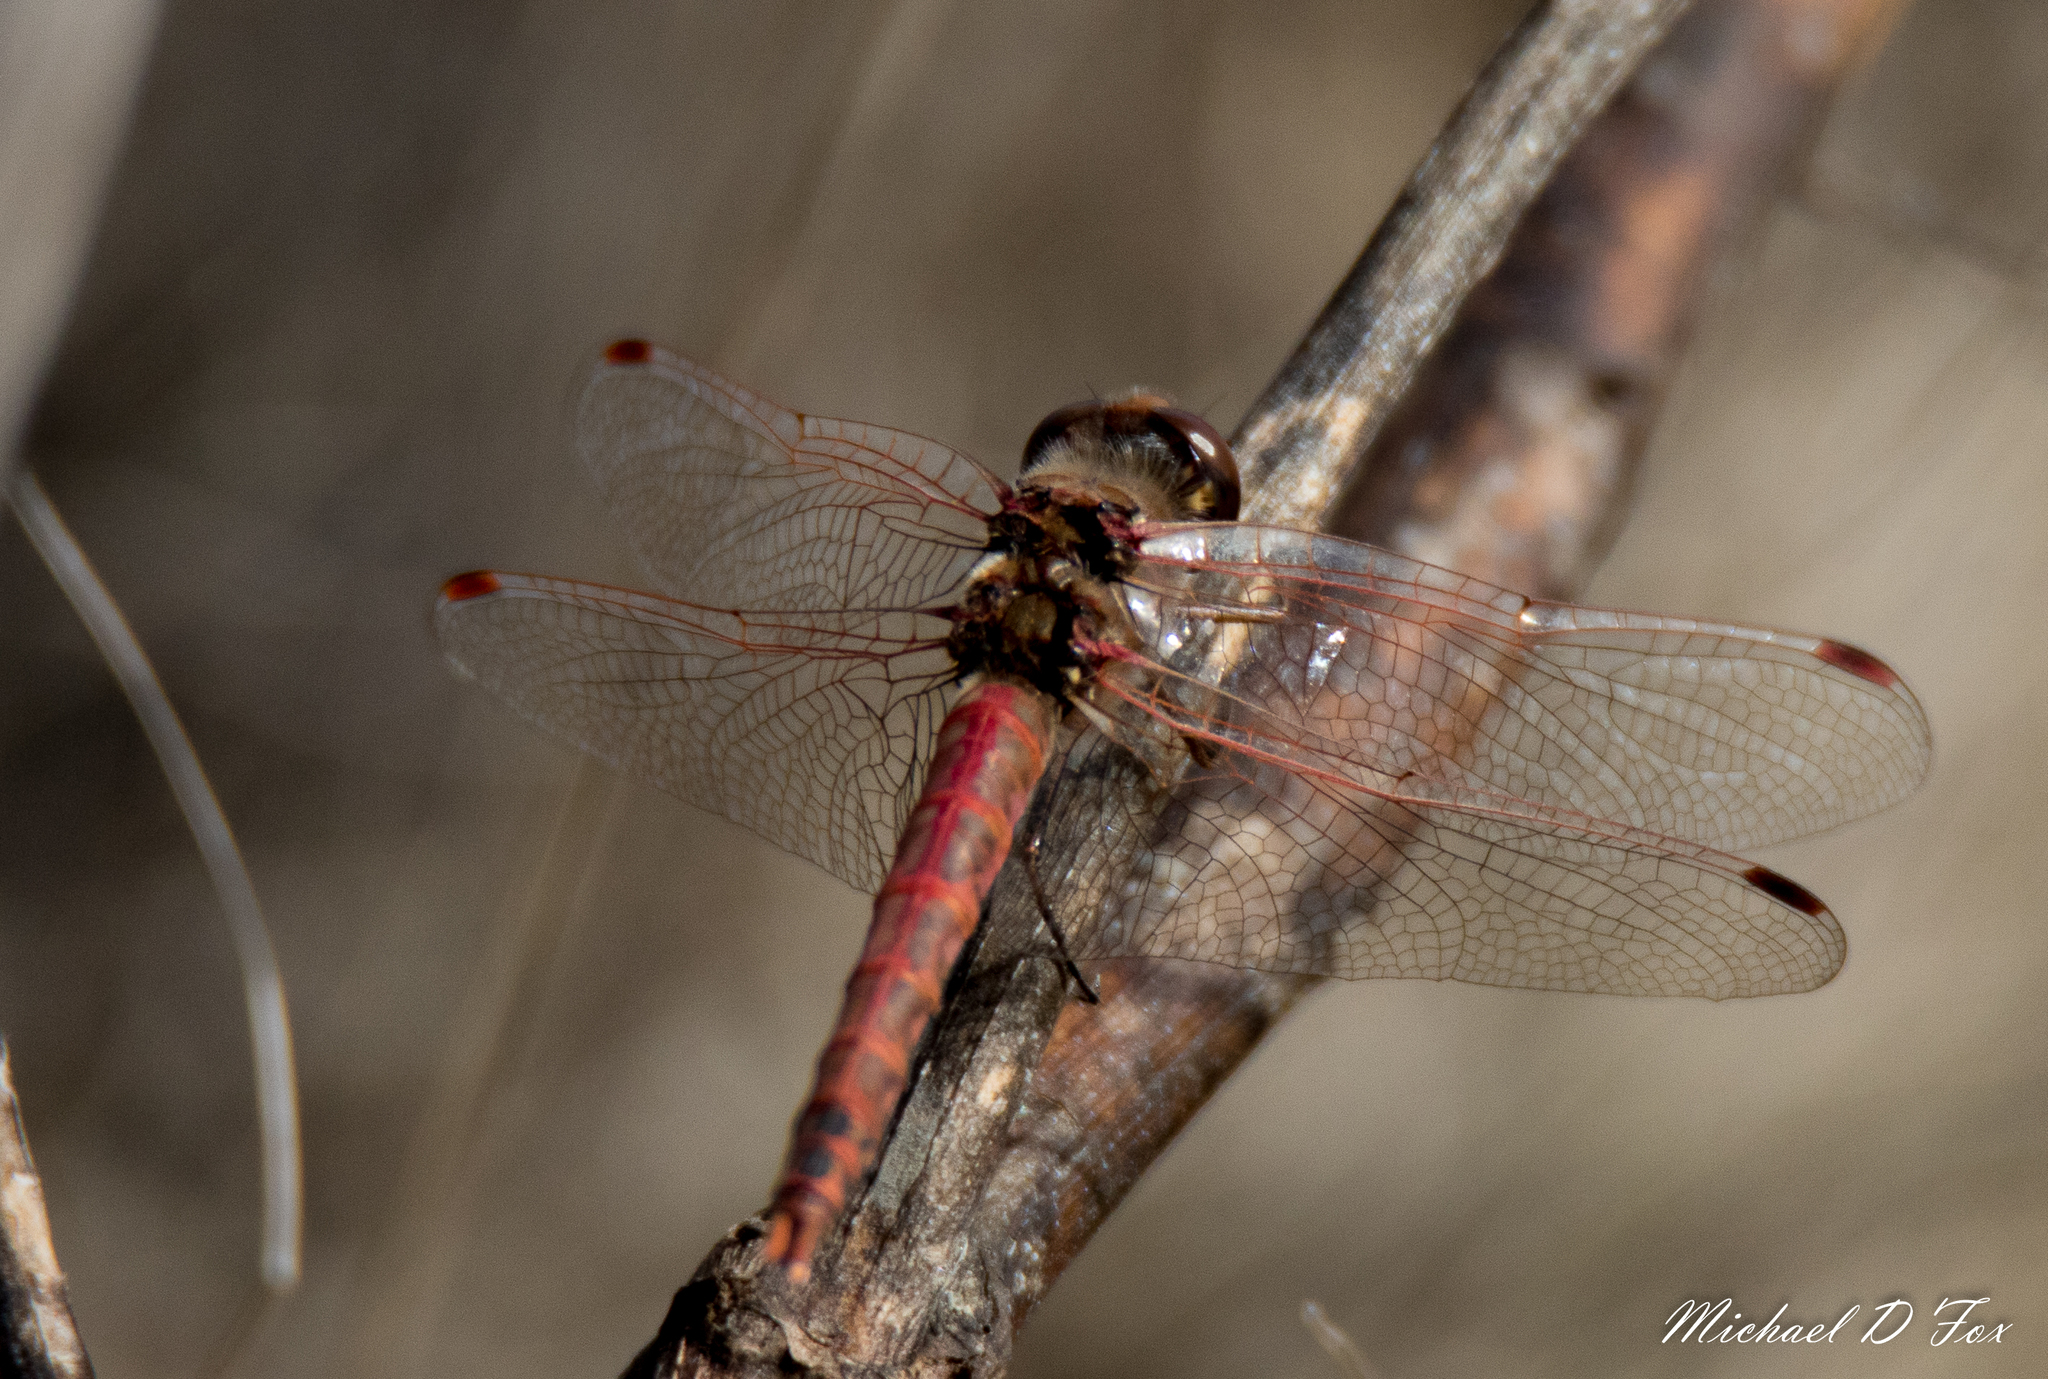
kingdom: Animalia
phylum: Arthropoda
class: Insecta
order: Odonata
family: Libellulidae
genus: Sympetrum
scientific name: Sympetrum corruptum
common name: Variegated meadowhawk
